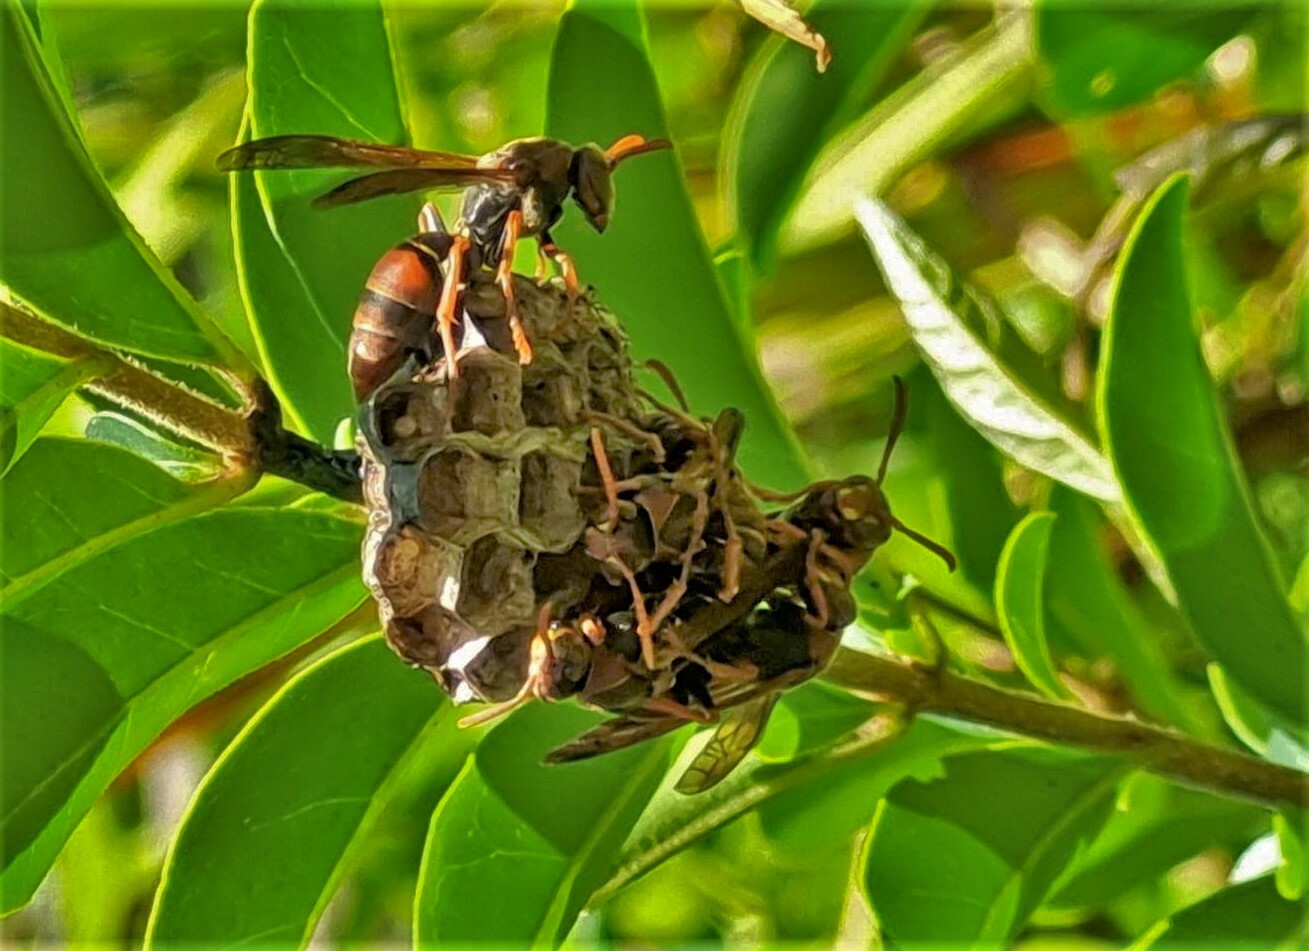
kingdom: Animalia
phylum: Arthropoda
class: Insecta
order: Hymenoptera
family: Eumenidae
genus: Polistes
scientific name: Polistes humilis
